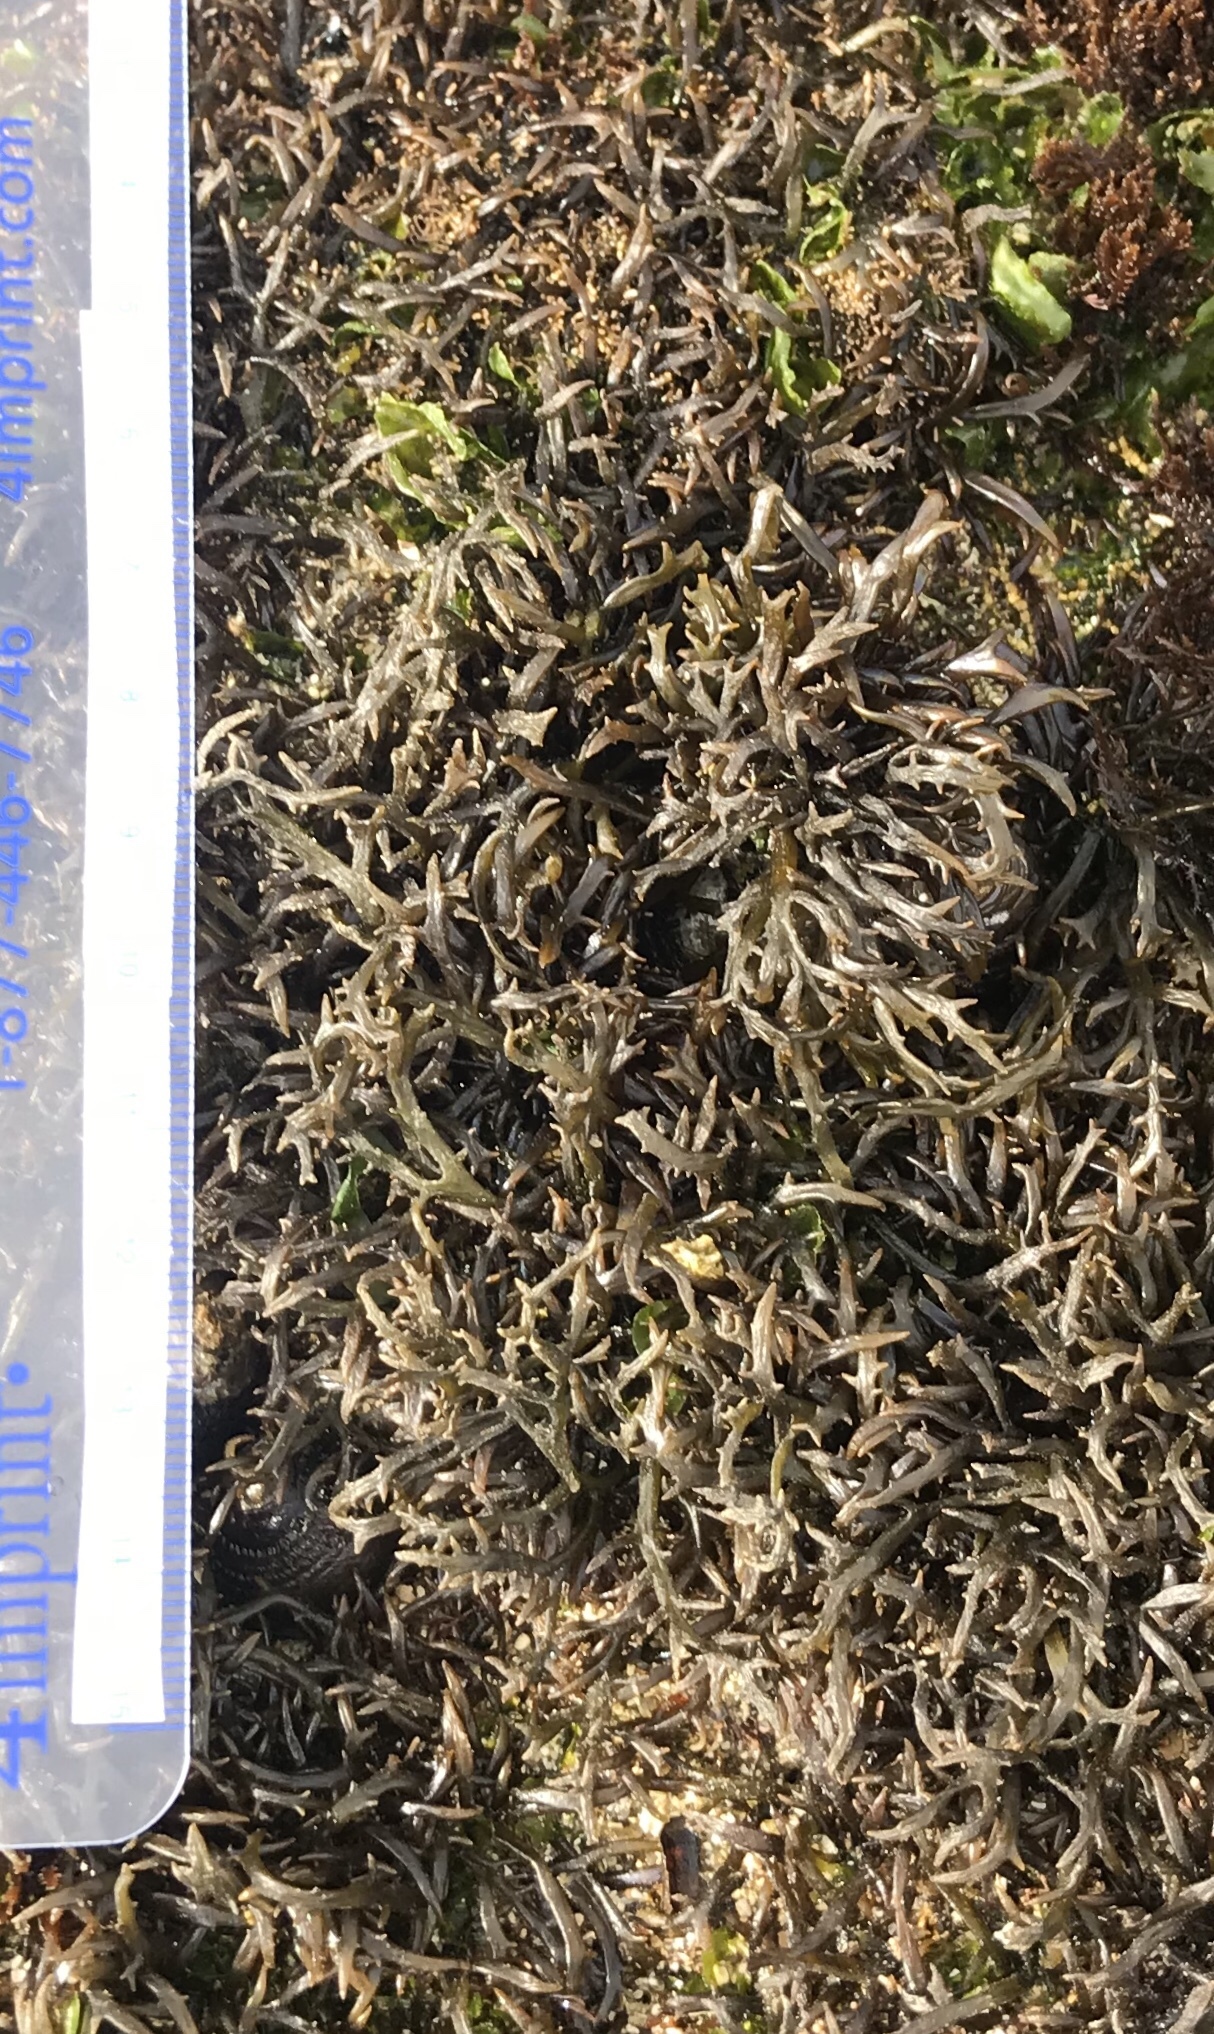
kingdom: Plantae
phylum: Rhodophyta
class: Florideophyceae
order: Gigartinales
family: Gigartinaceae
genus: Chondracanthus
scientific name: Chondracanthus canaliculatus
